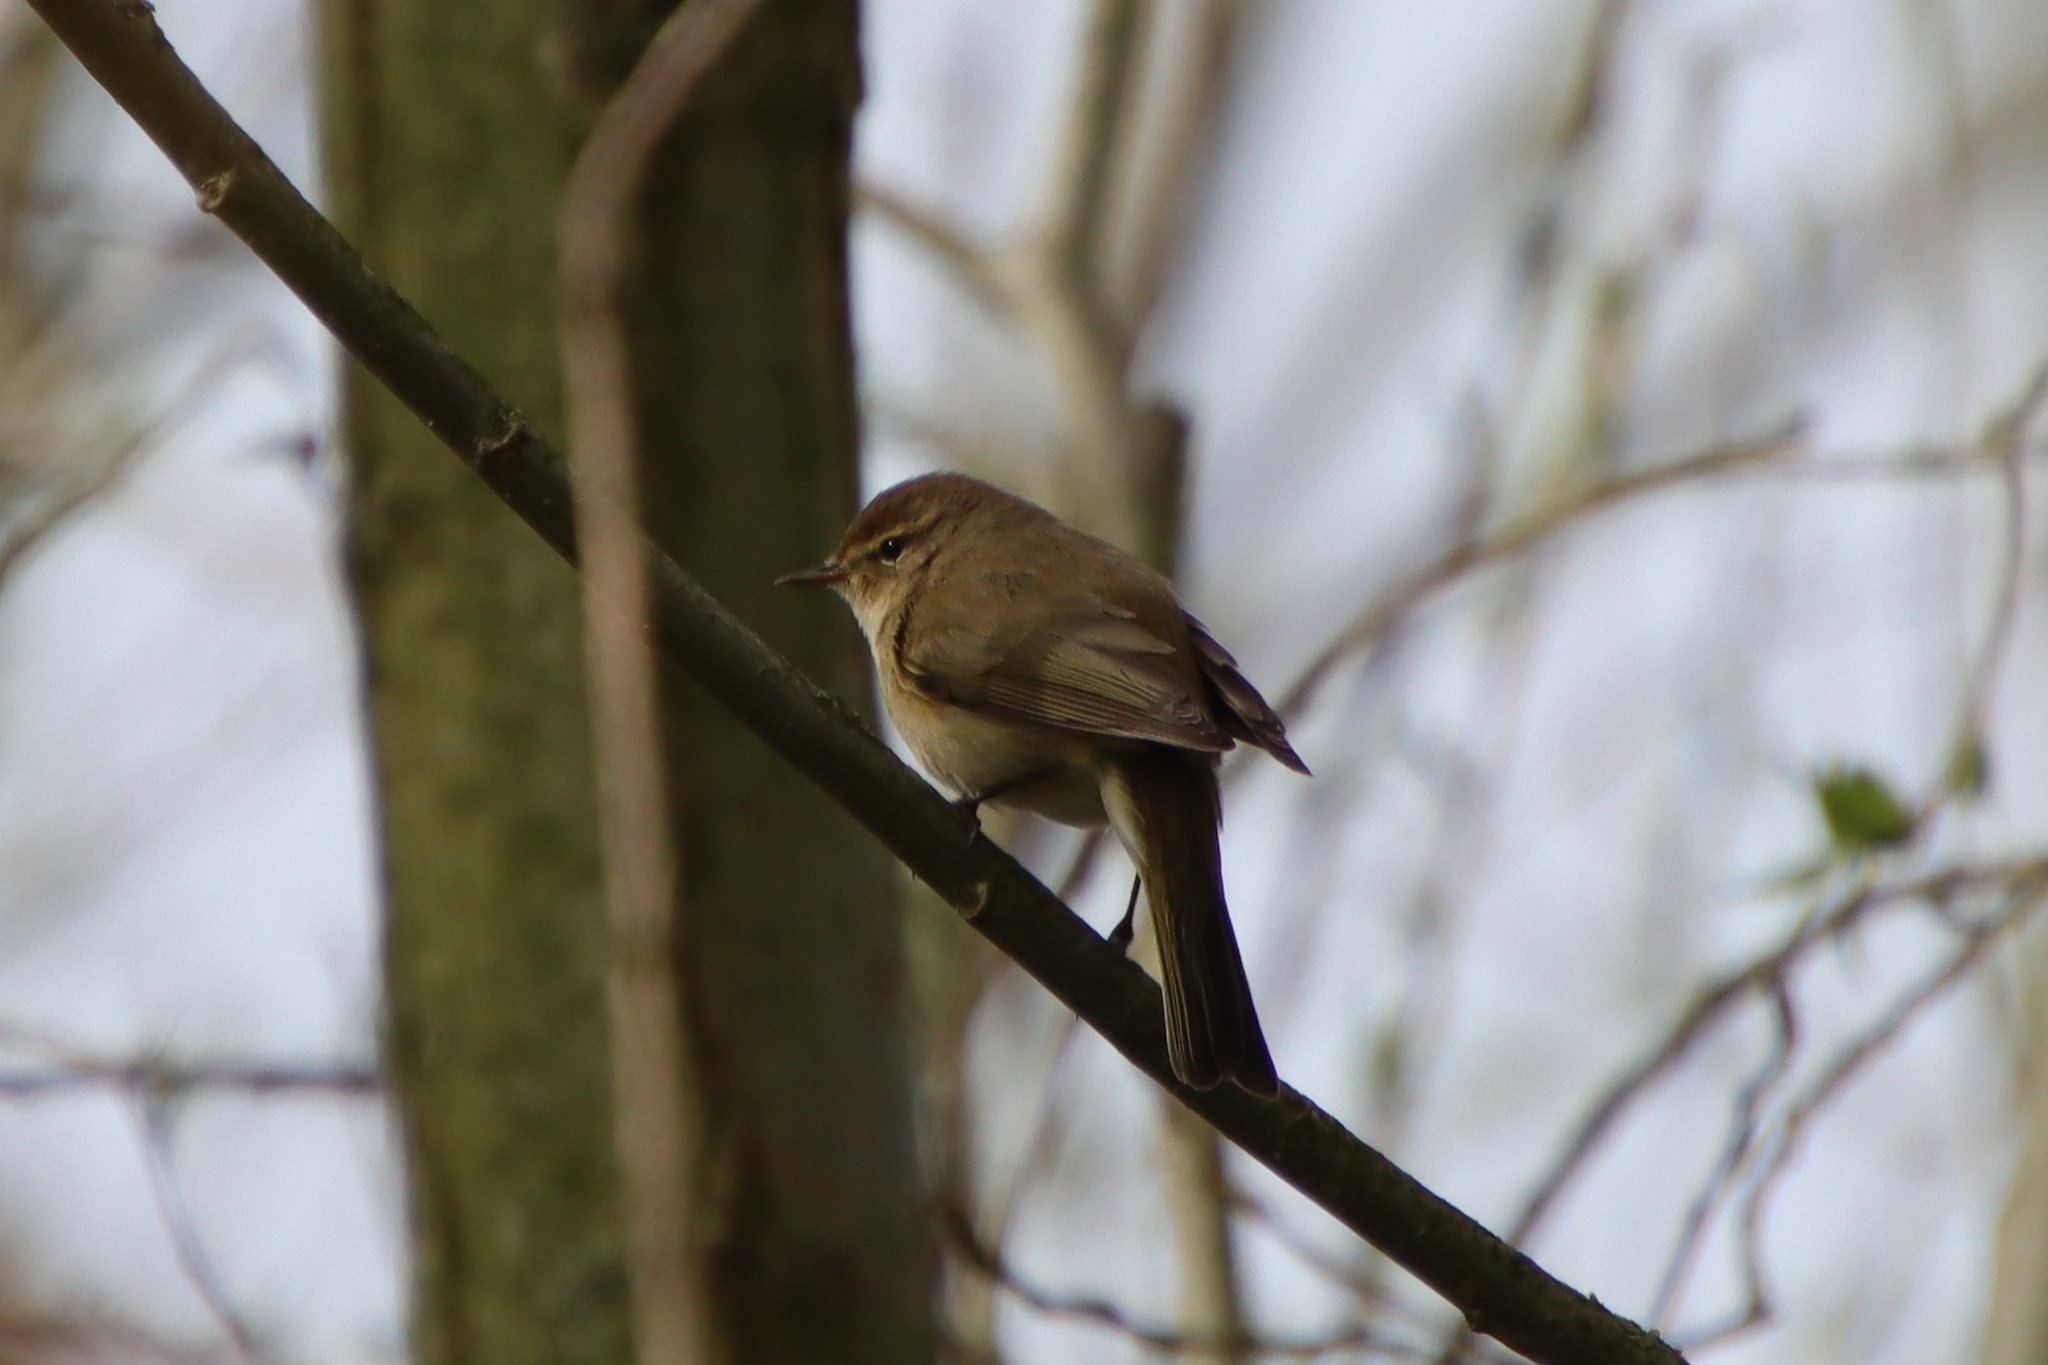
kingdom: Animalia
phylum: Chordata
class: Aves
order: Passeriformes
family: Phylloscopidae
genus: Phylloscopus
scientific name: Phylloscopus collybita
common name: Common chiffchaff
